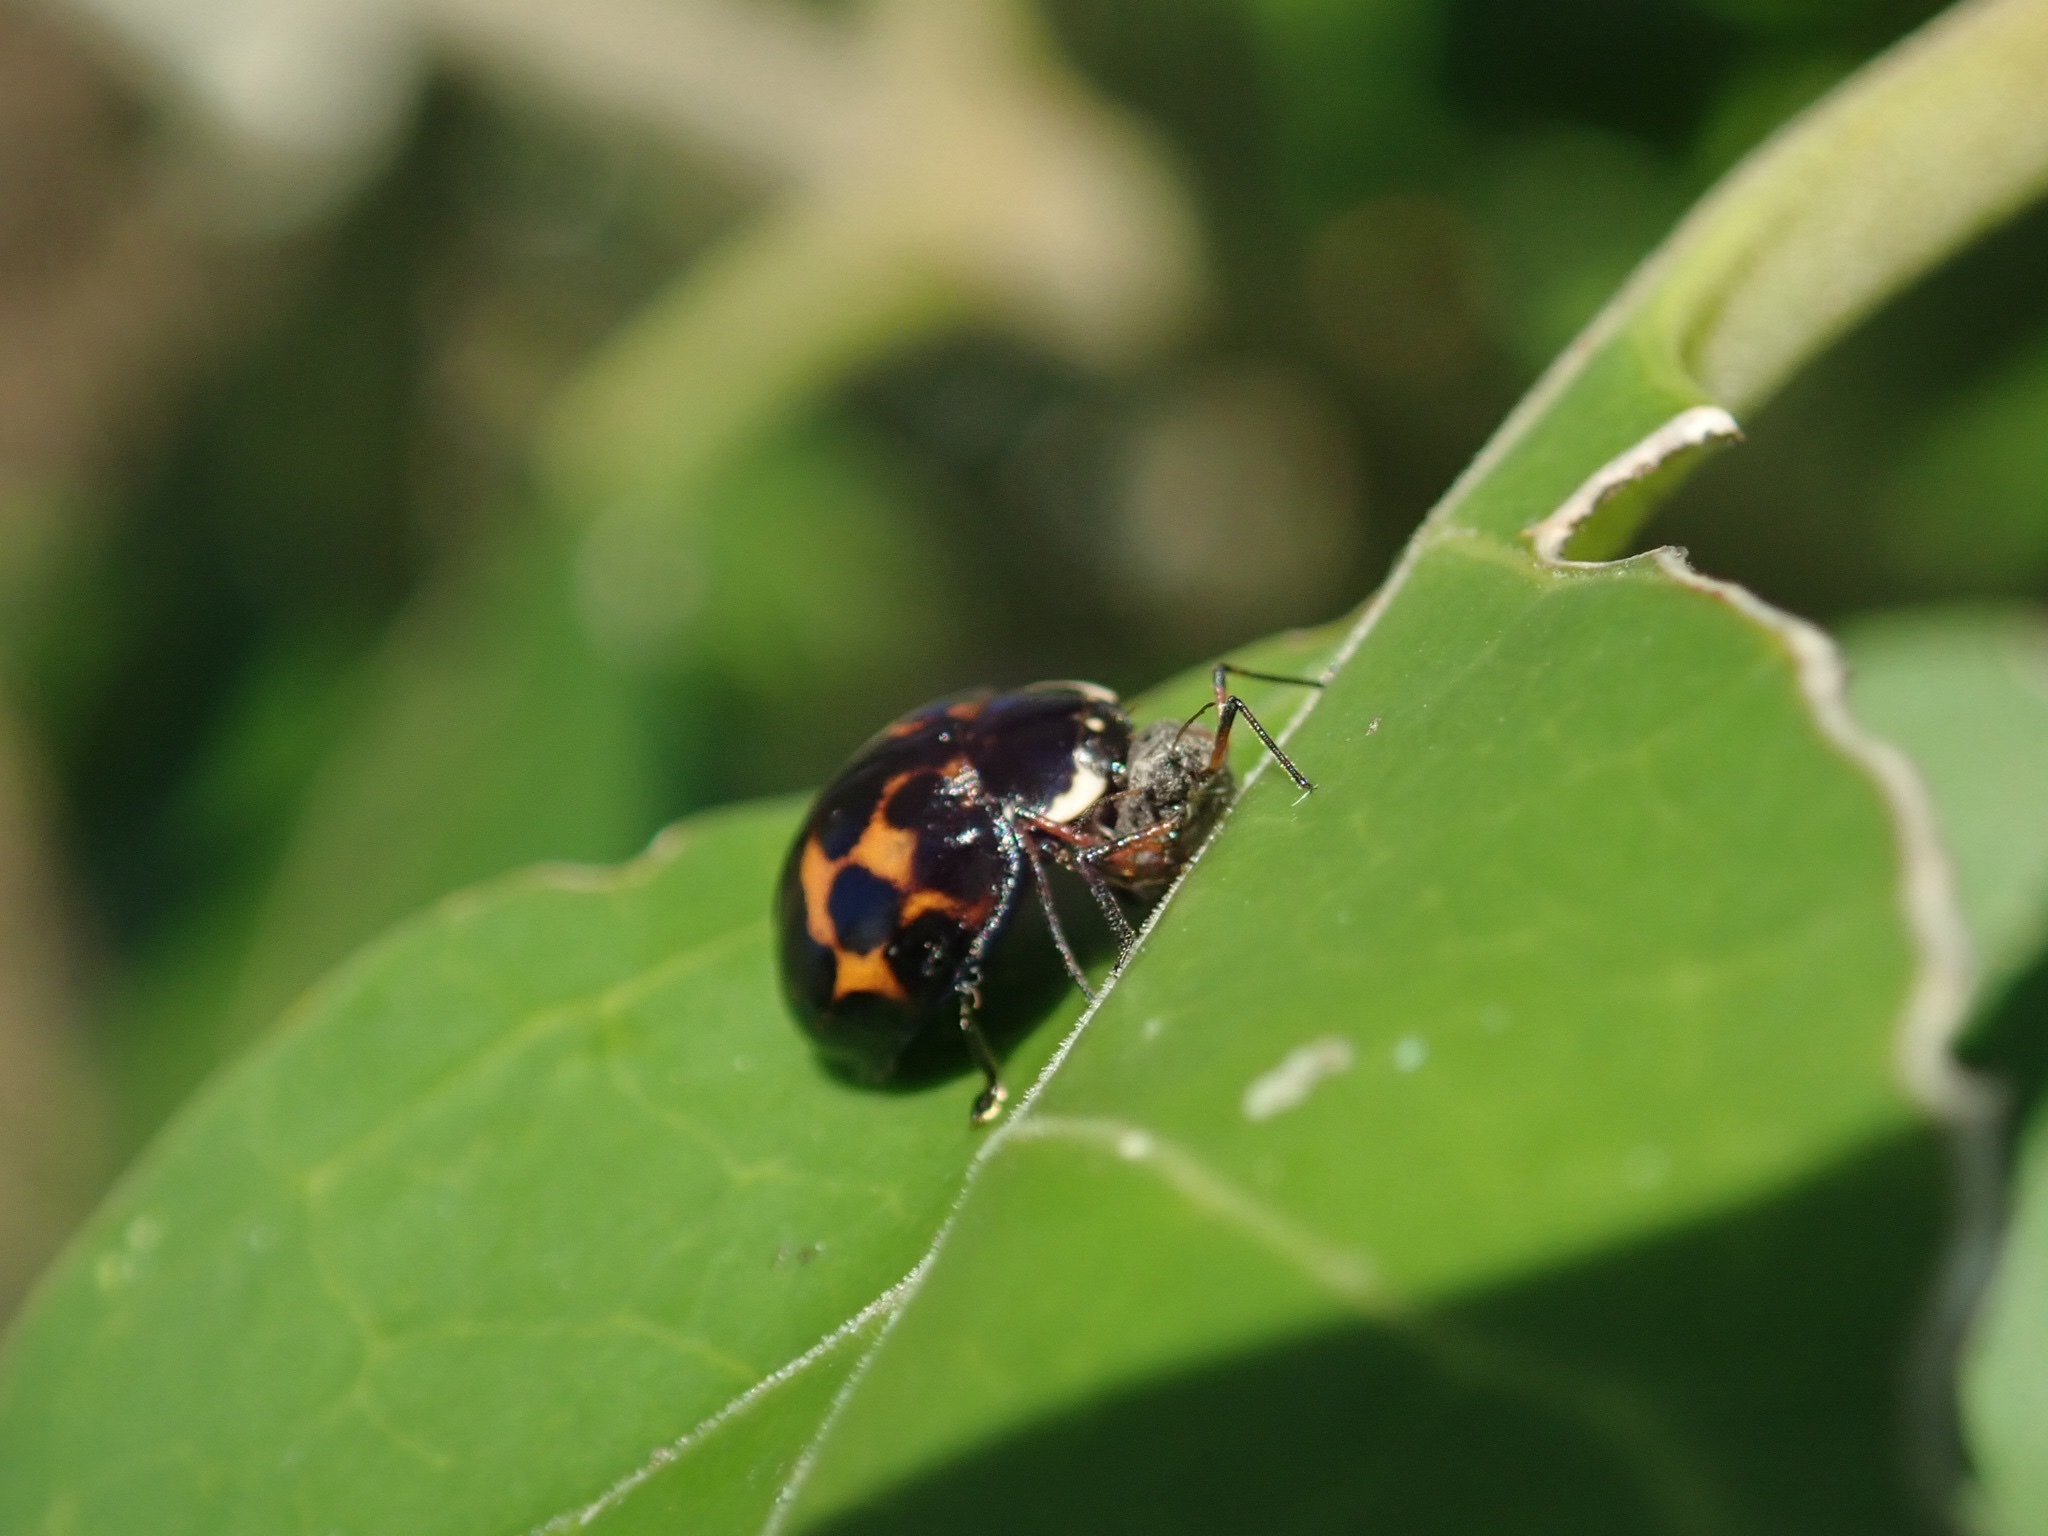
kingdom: Animalia
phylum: Arthropoda
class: Insecta
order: Coleoptera
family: Coccinellidae
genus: Harmonia
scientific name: Harmonia axyridis
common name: Harlequin ladybird
